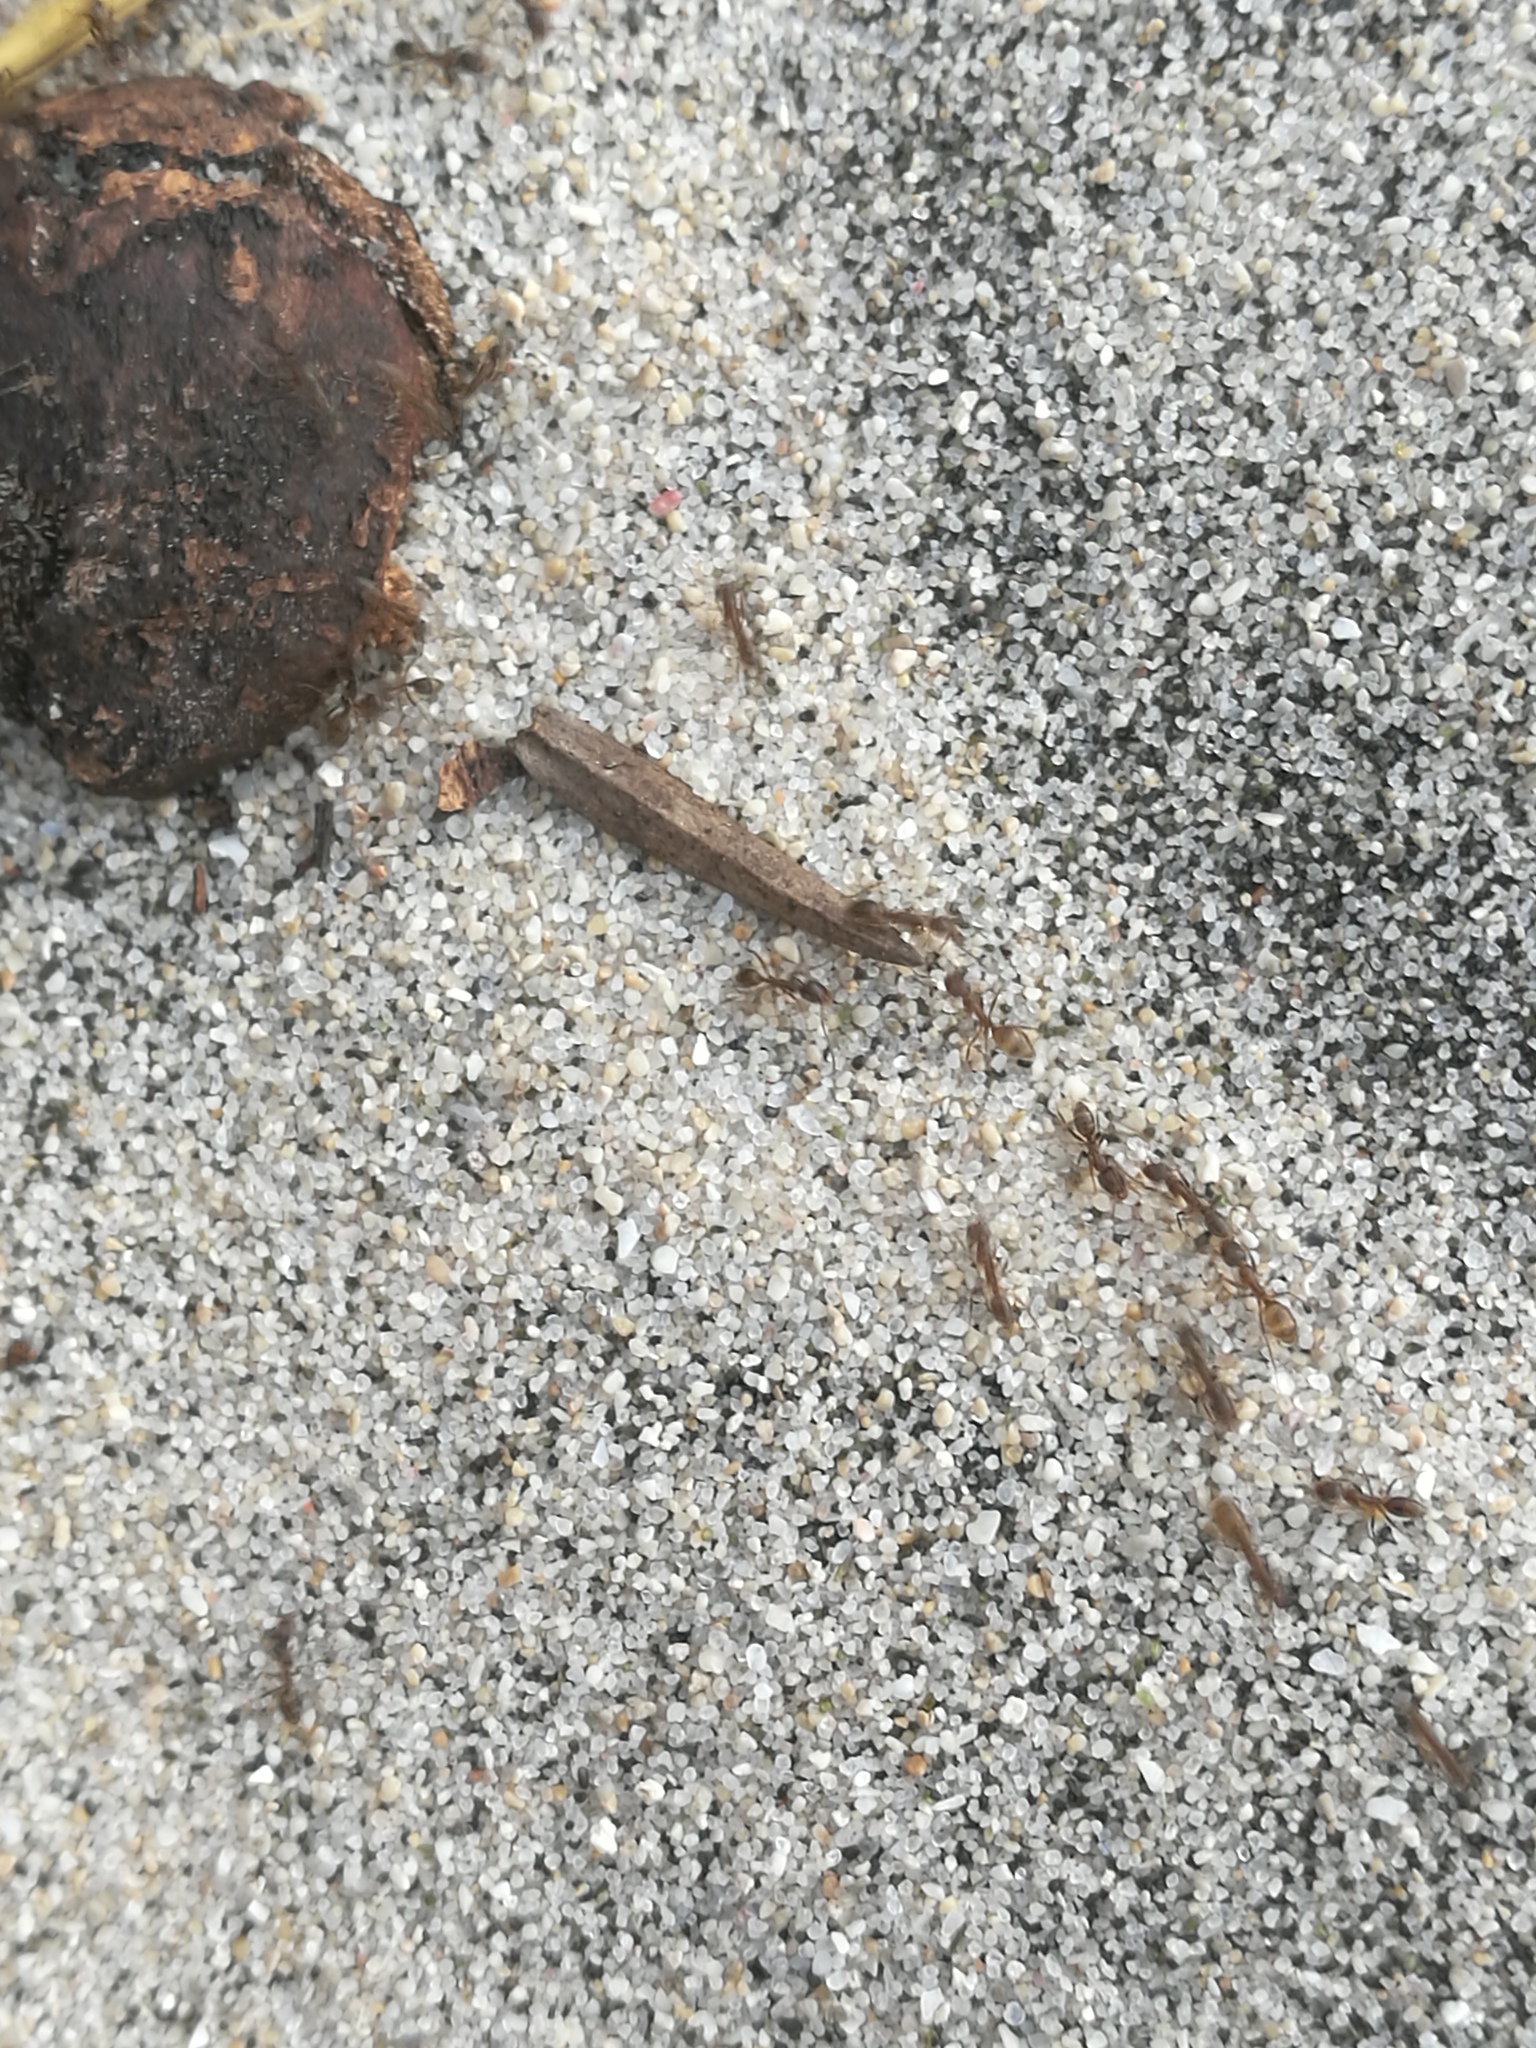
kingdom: Animalia
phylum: Arthropoda
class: Insecta
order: Hymenoptera
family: Formicidae
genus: Linepithema
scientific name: Linepithema humile
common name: Argentine ant
